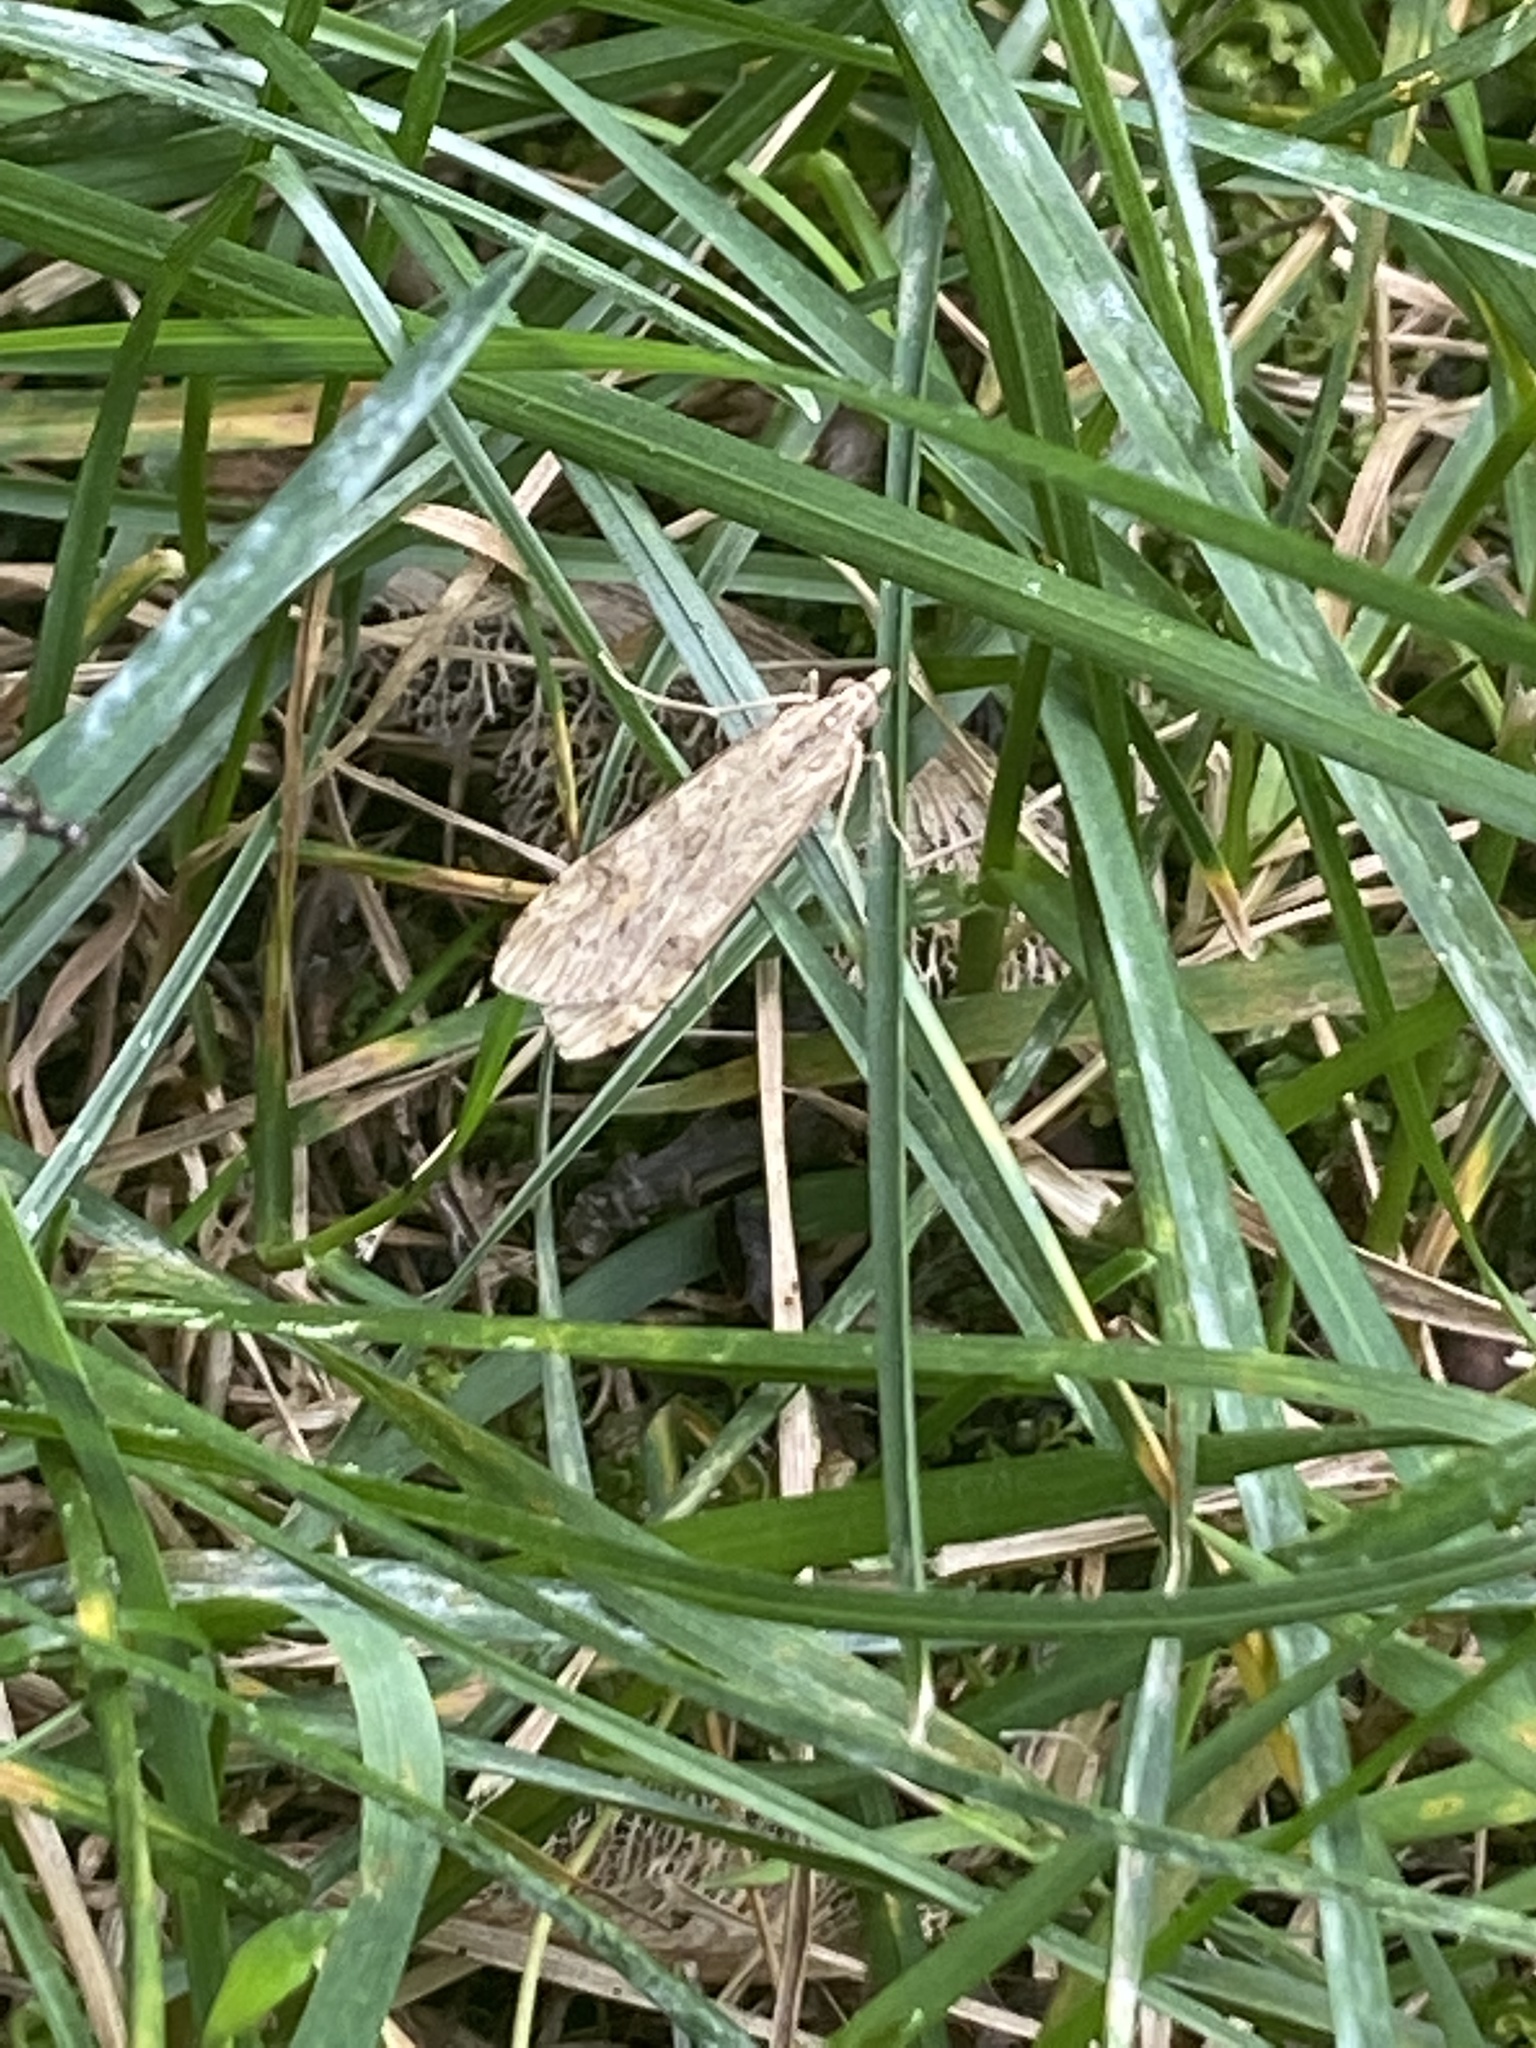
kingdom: Animalia
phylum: Arthropoda
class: Insecta
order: Lepidoptera
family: Crambidae
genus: Nomophila
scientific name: Nomophila nearctica
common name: American rush veneer
